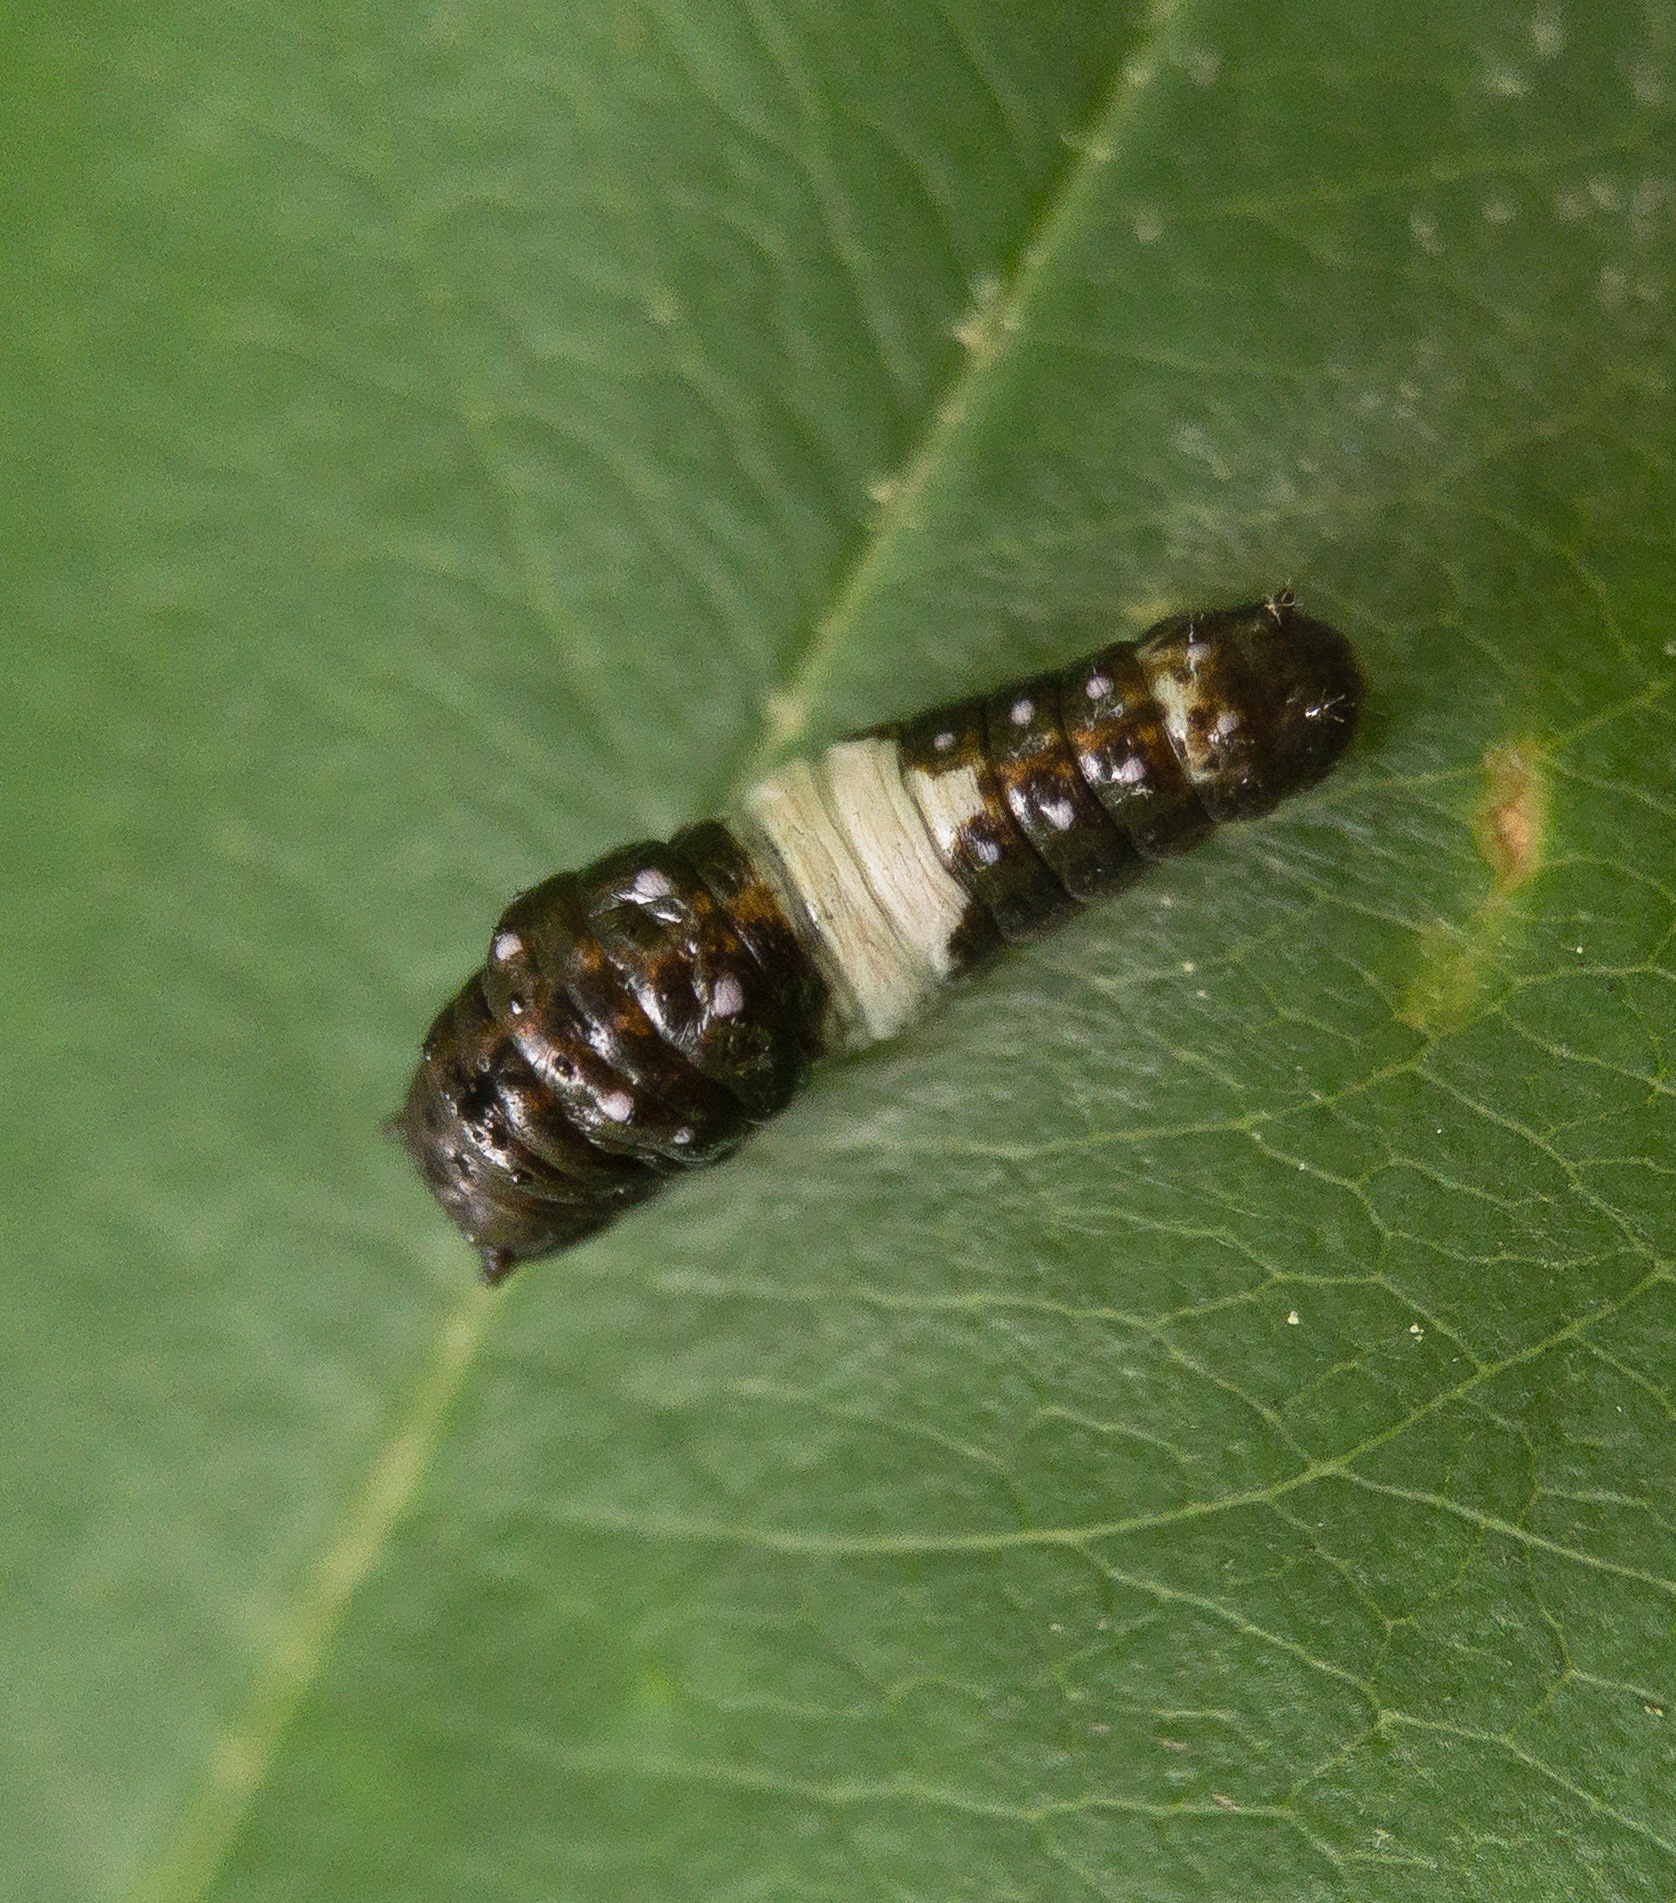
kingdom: Animalia
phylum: Arthropoda
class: Insecta
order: Lepidoptera
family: Papilionidae
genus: Papilio
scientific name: Papilio glaucus
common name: Tiger swallowtail
